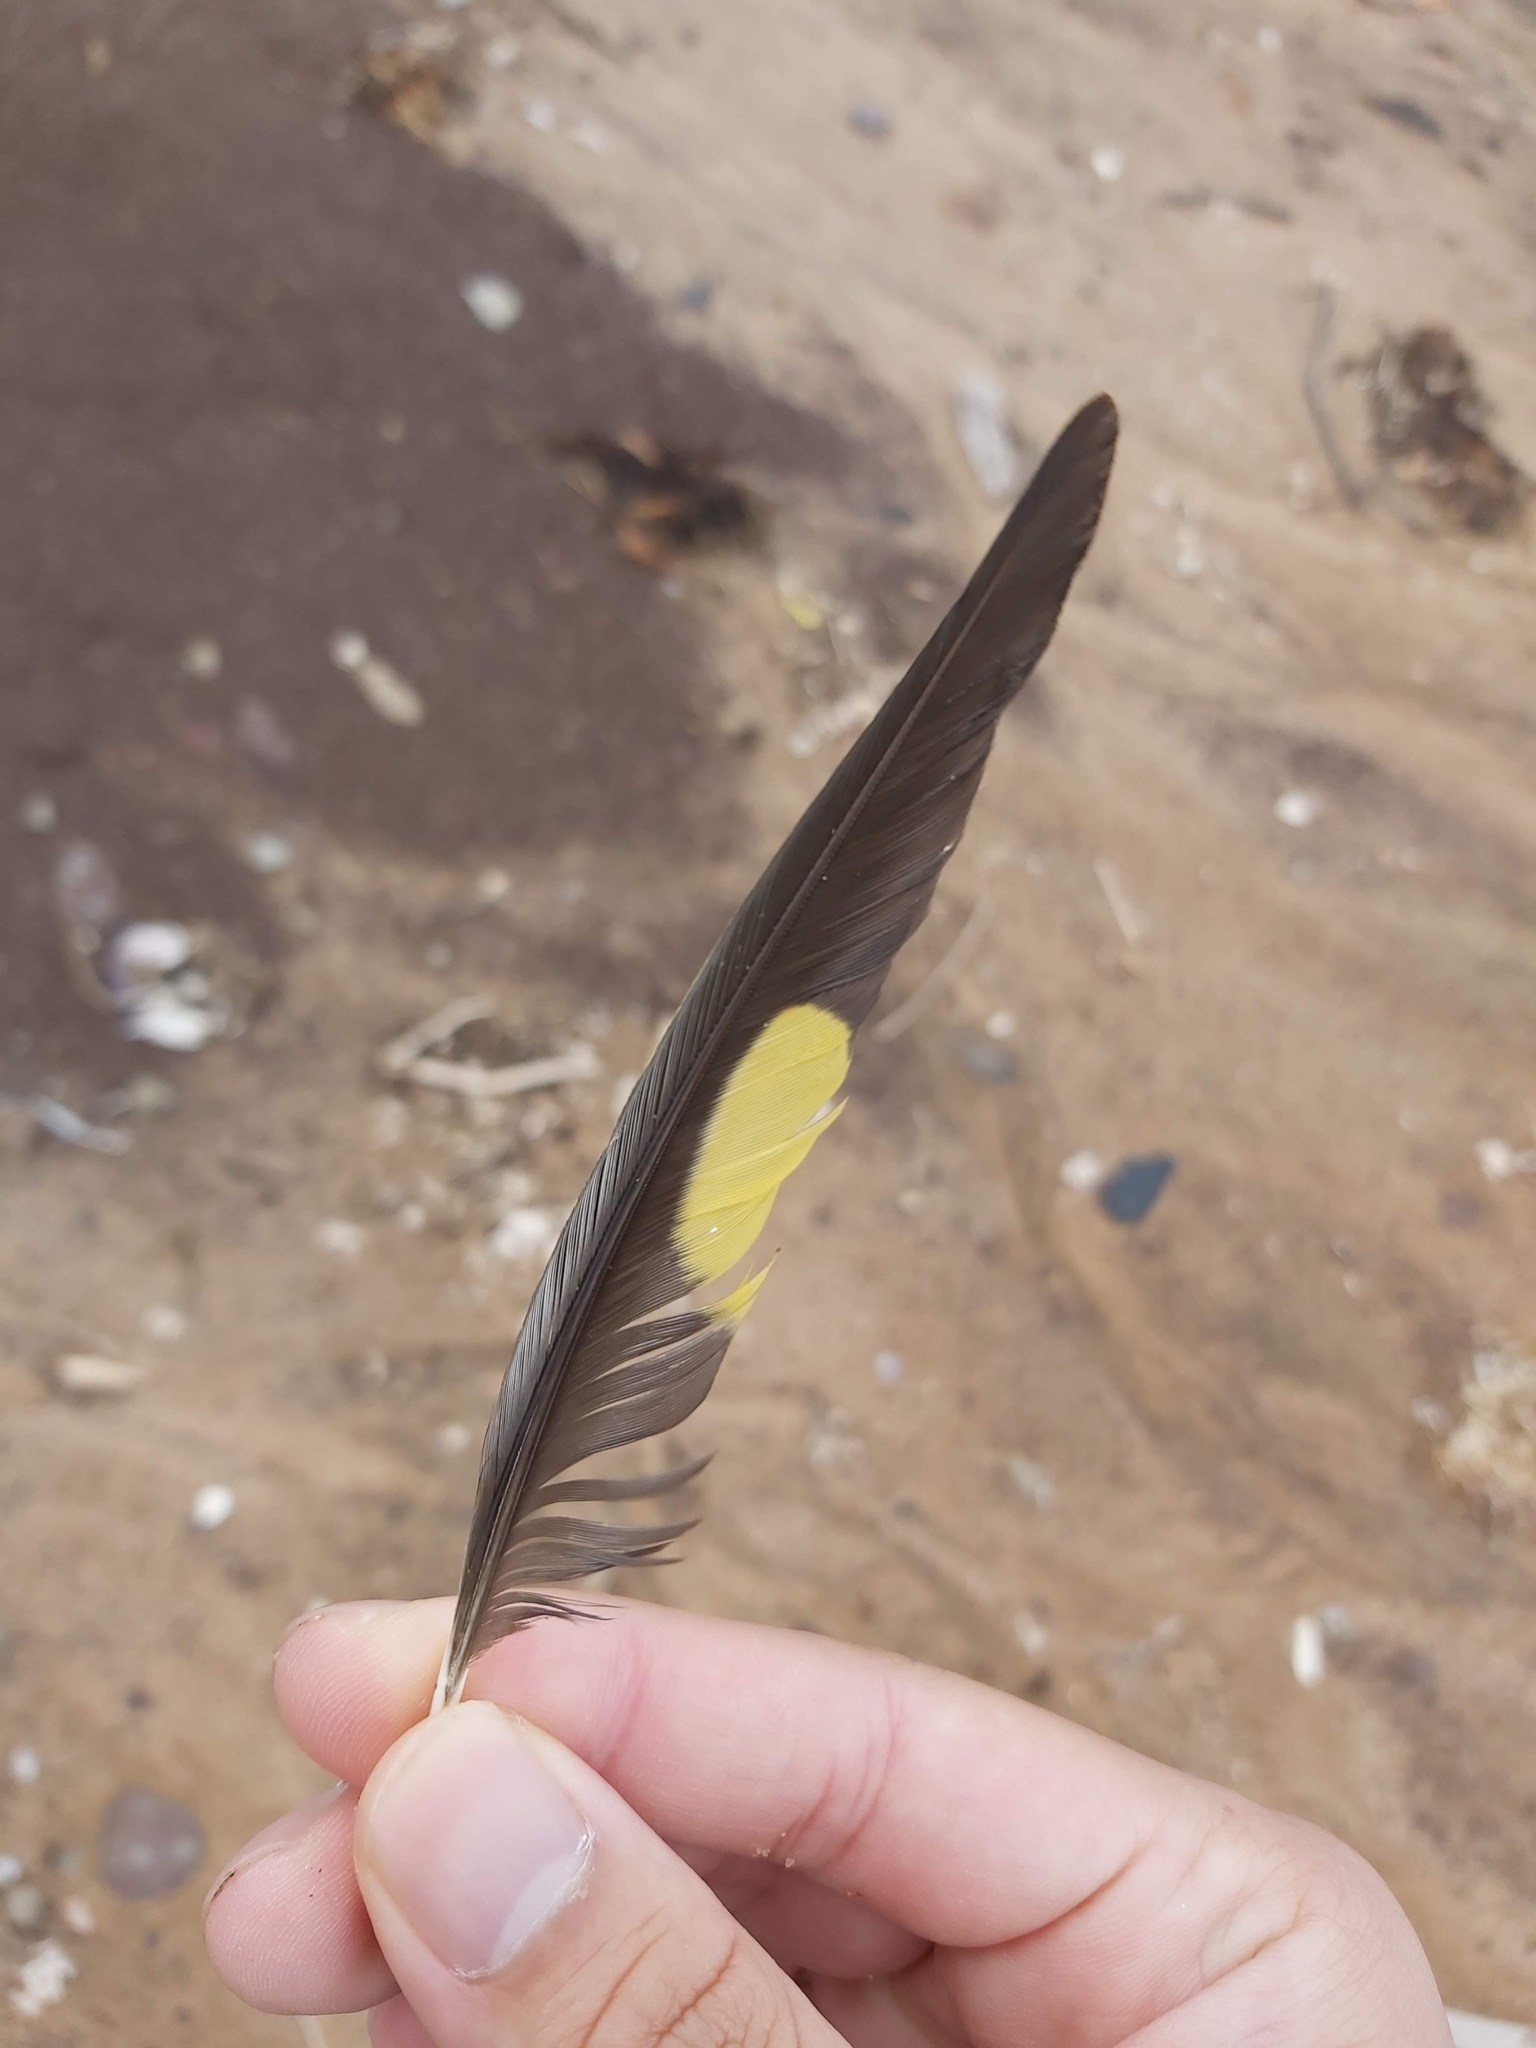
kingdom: Animalia
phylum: Chordata
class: Aves
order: Psittaciformes
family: Psittacidae
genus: Trichoglossus
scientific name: Trichoglossus haematodus
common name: Coconut lorikeet
